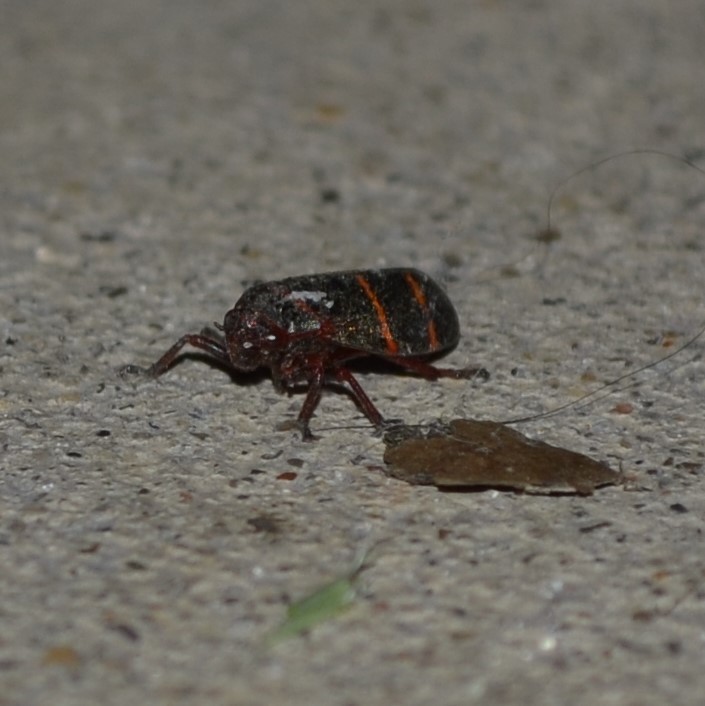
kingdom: Animalia
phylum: Arthropoda
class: Insecta
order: Hemiptera
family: Cercopidae
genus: Prosapia
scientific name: Prosapia bicincta
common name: Twolined spittlebug
